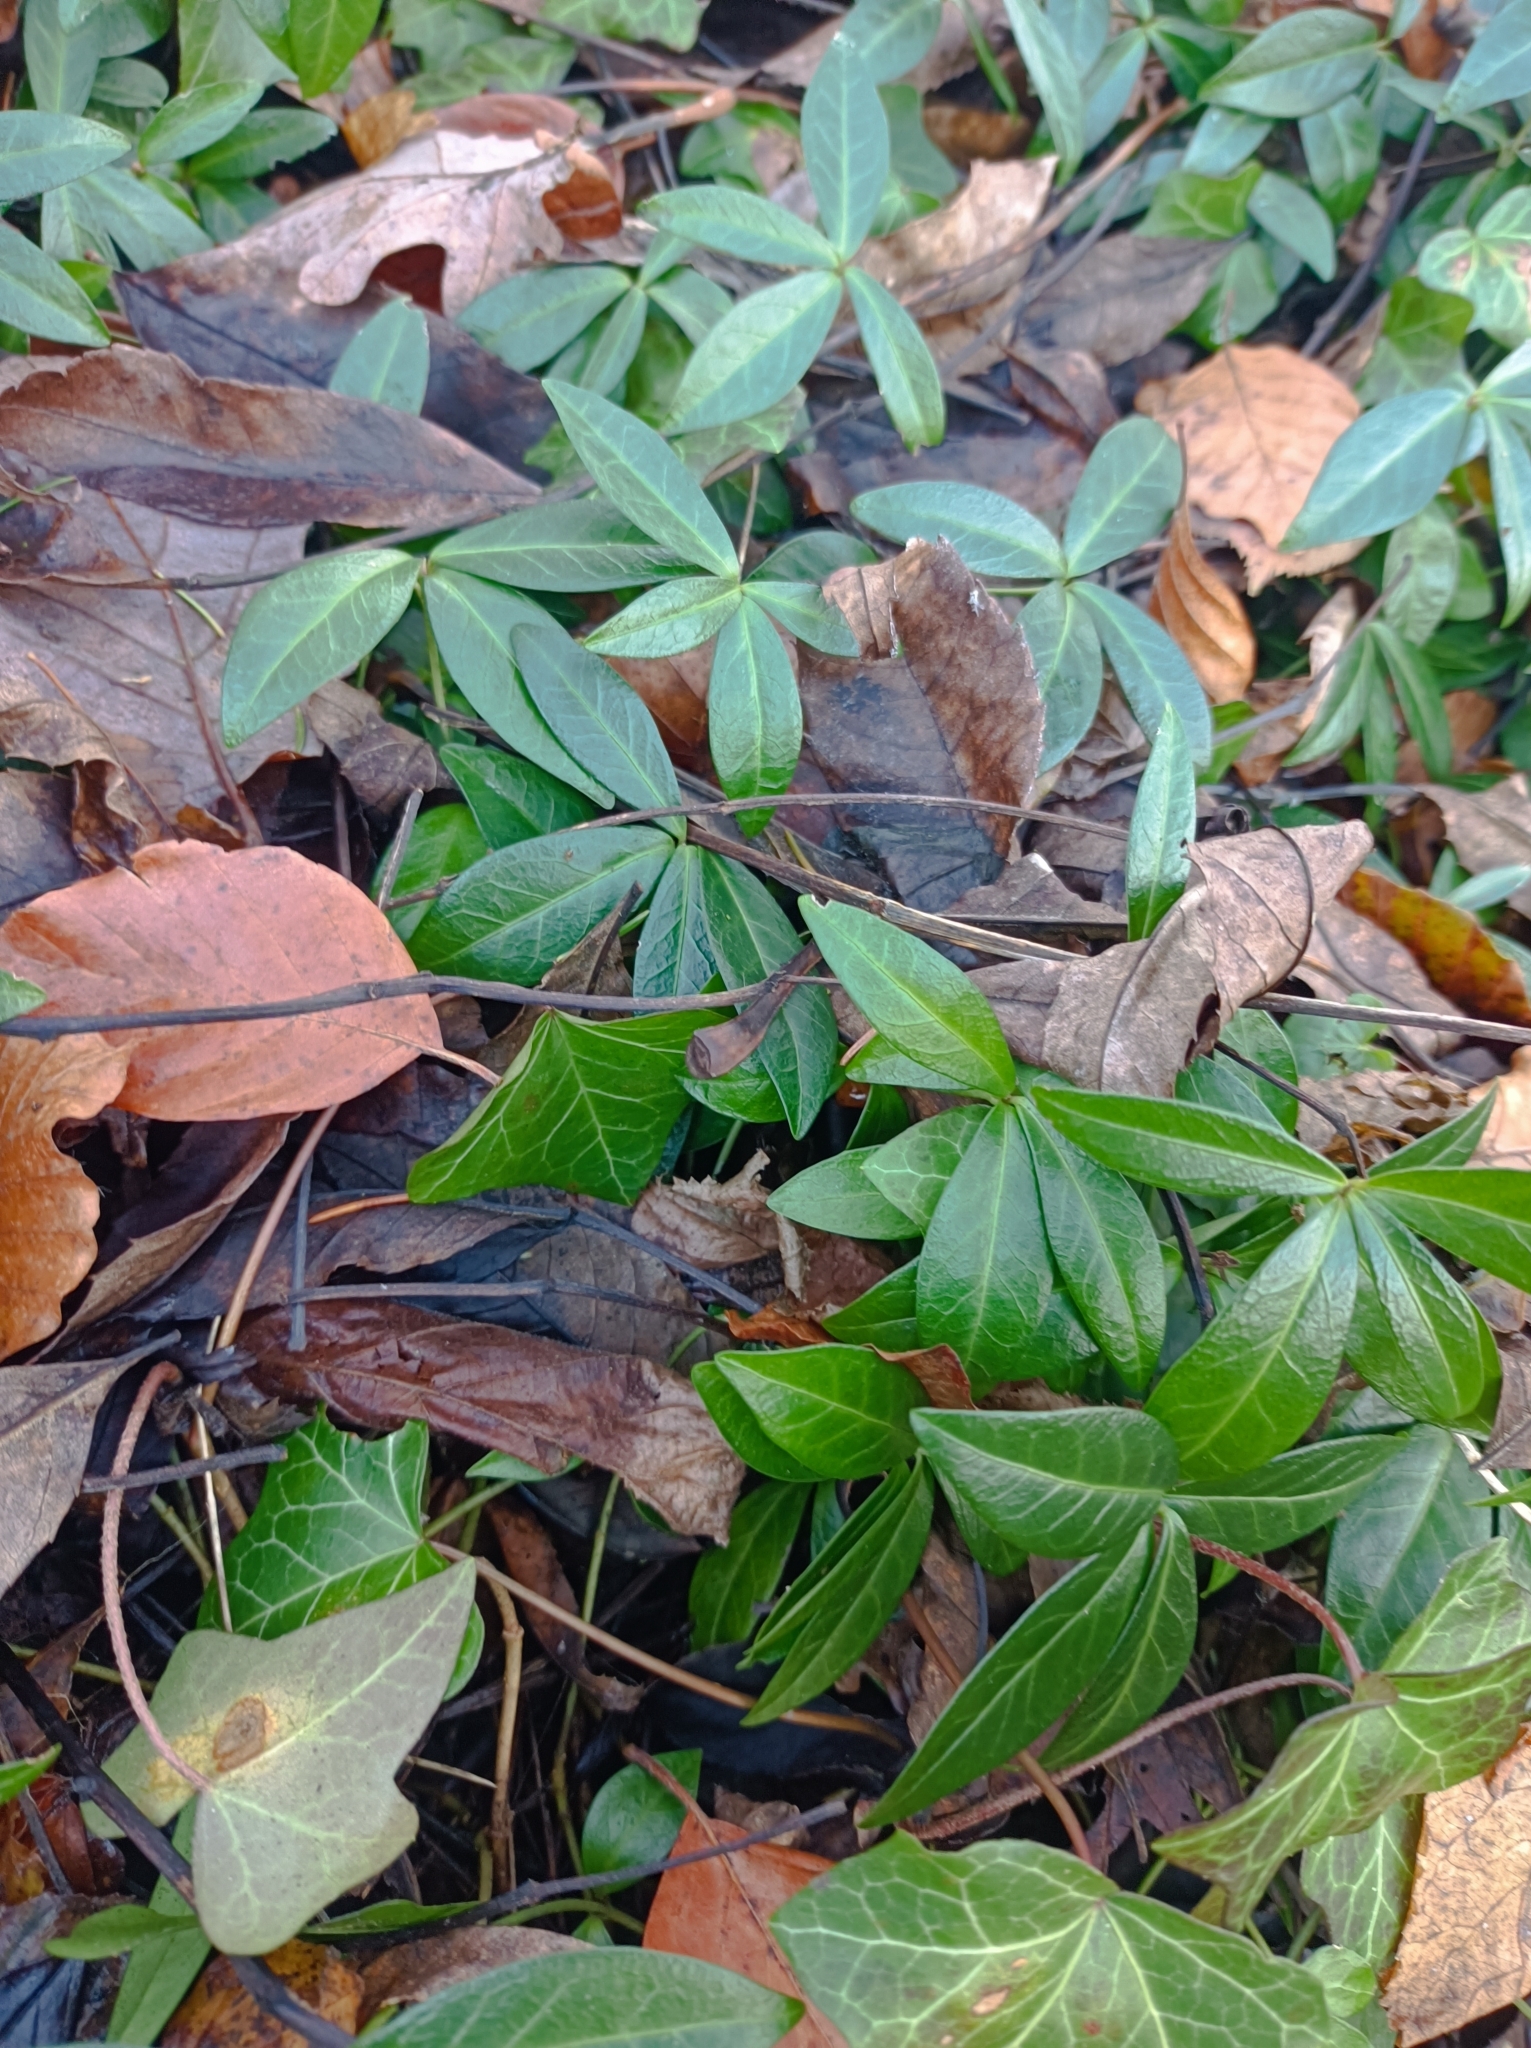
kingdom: Plantae
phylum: Tracheophyta
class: Magnoliopsida
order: Gentianales
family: Apocynaceae
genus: Vinca
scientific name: Vinca minor
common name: Lesser periwinkle
